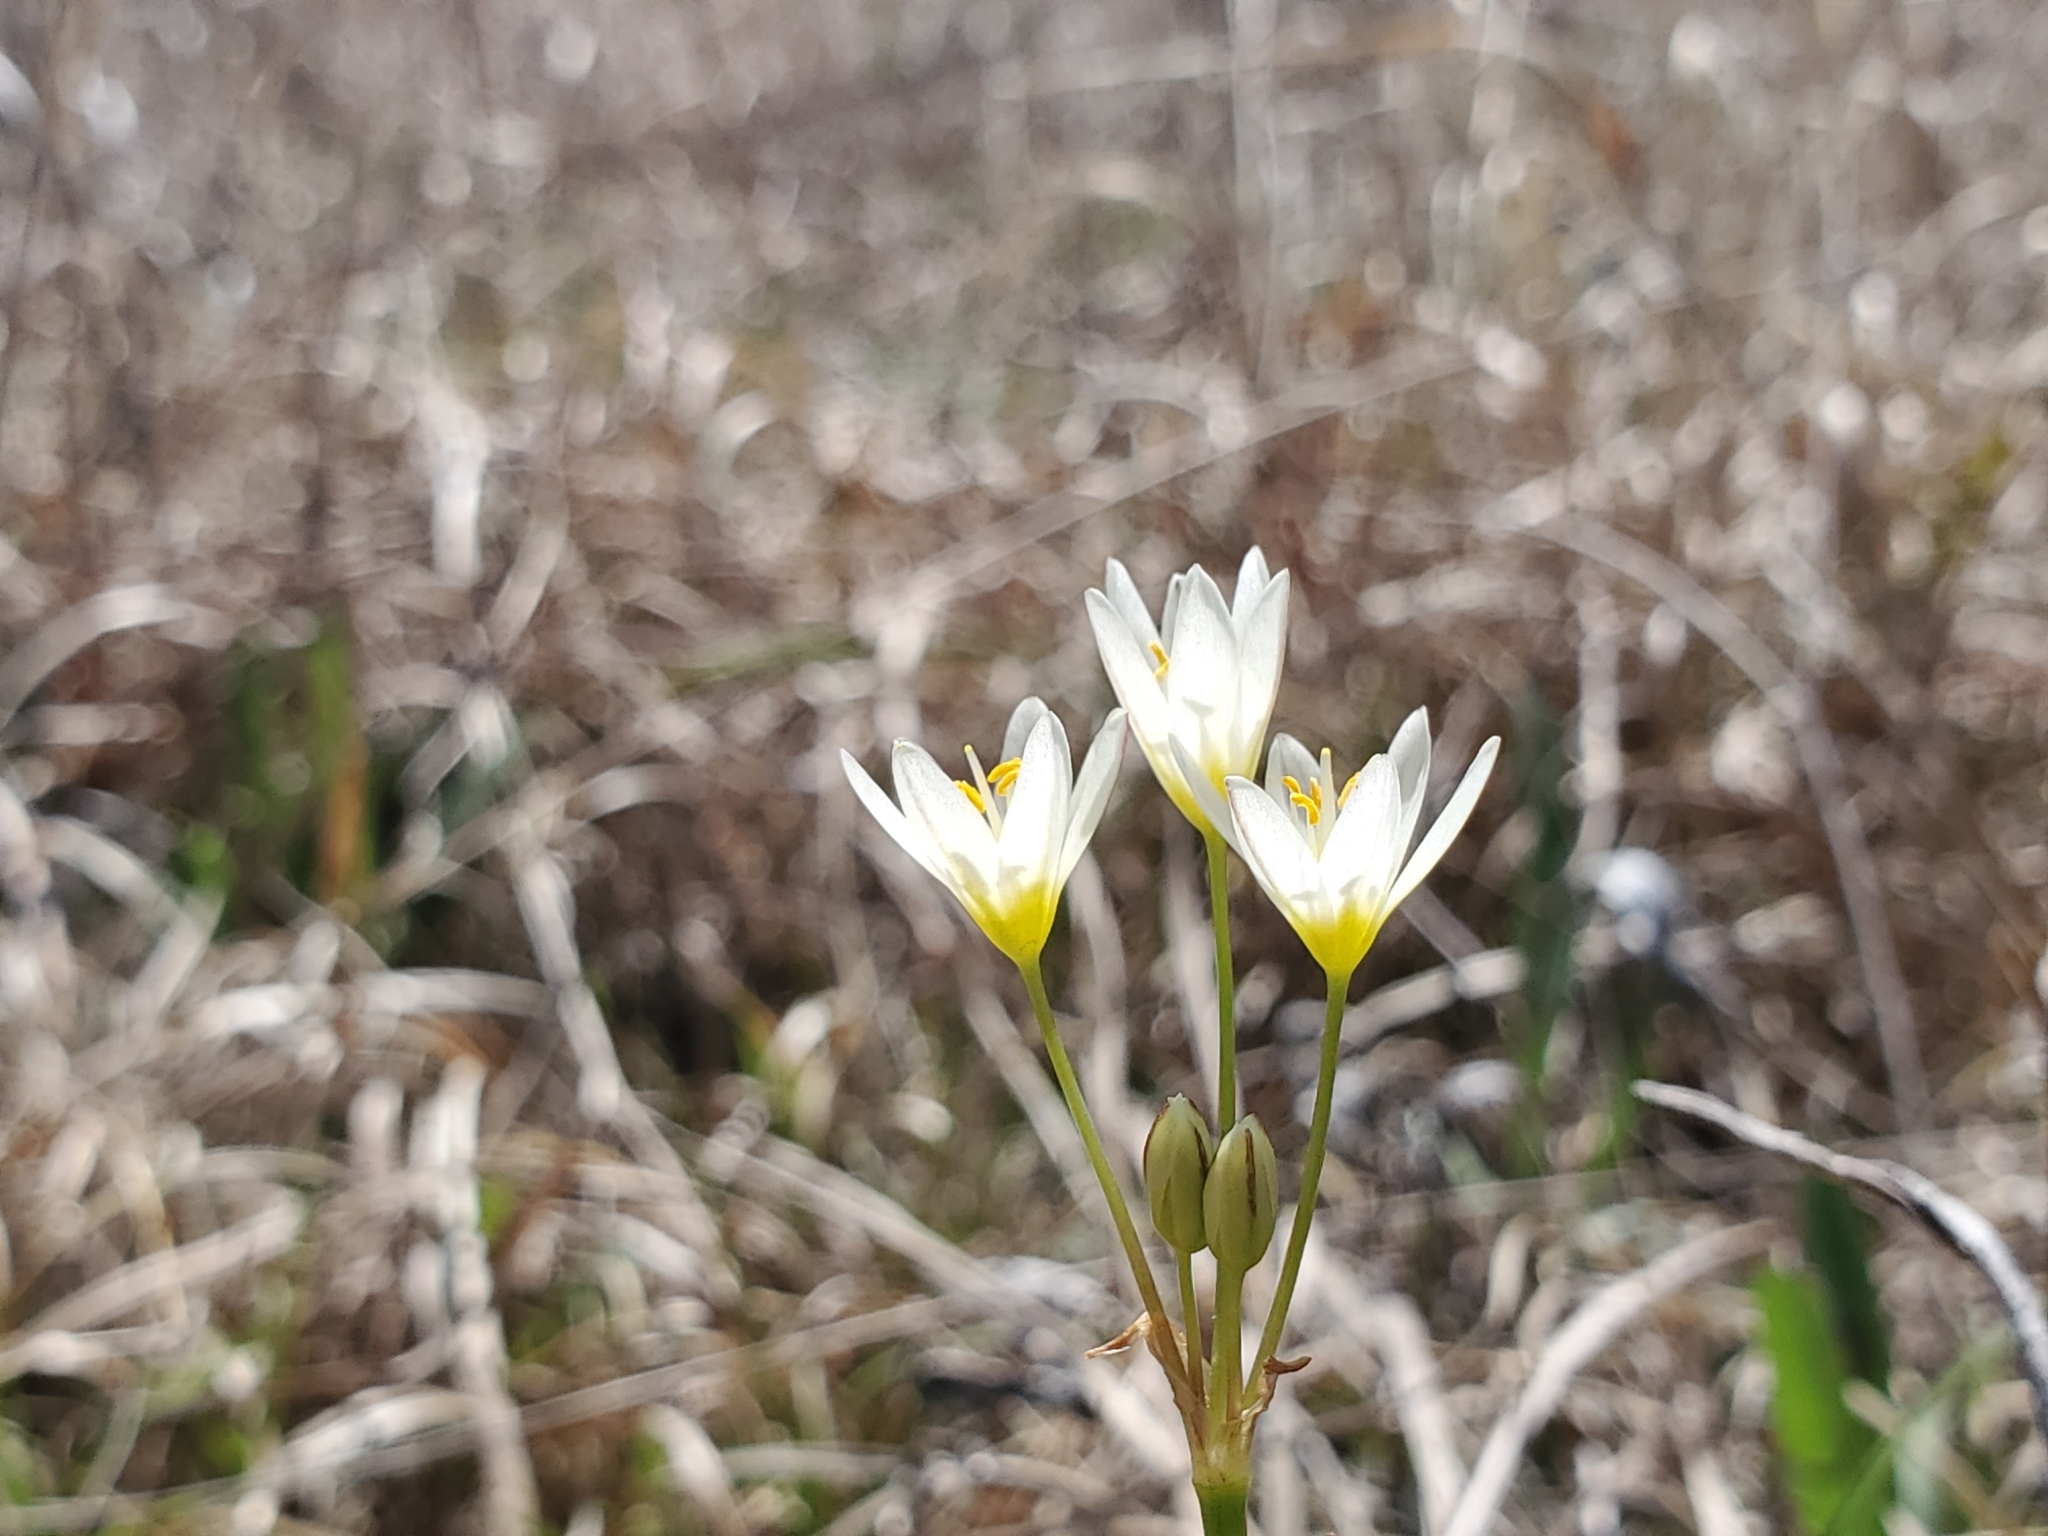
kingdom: Plantae
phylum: Tracheophyta
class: Liliopsida
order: Asparagales
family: Amaryllidaceae
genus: Nothoscordum
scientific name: Nothoscordum bivalve
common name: Crow-poison
